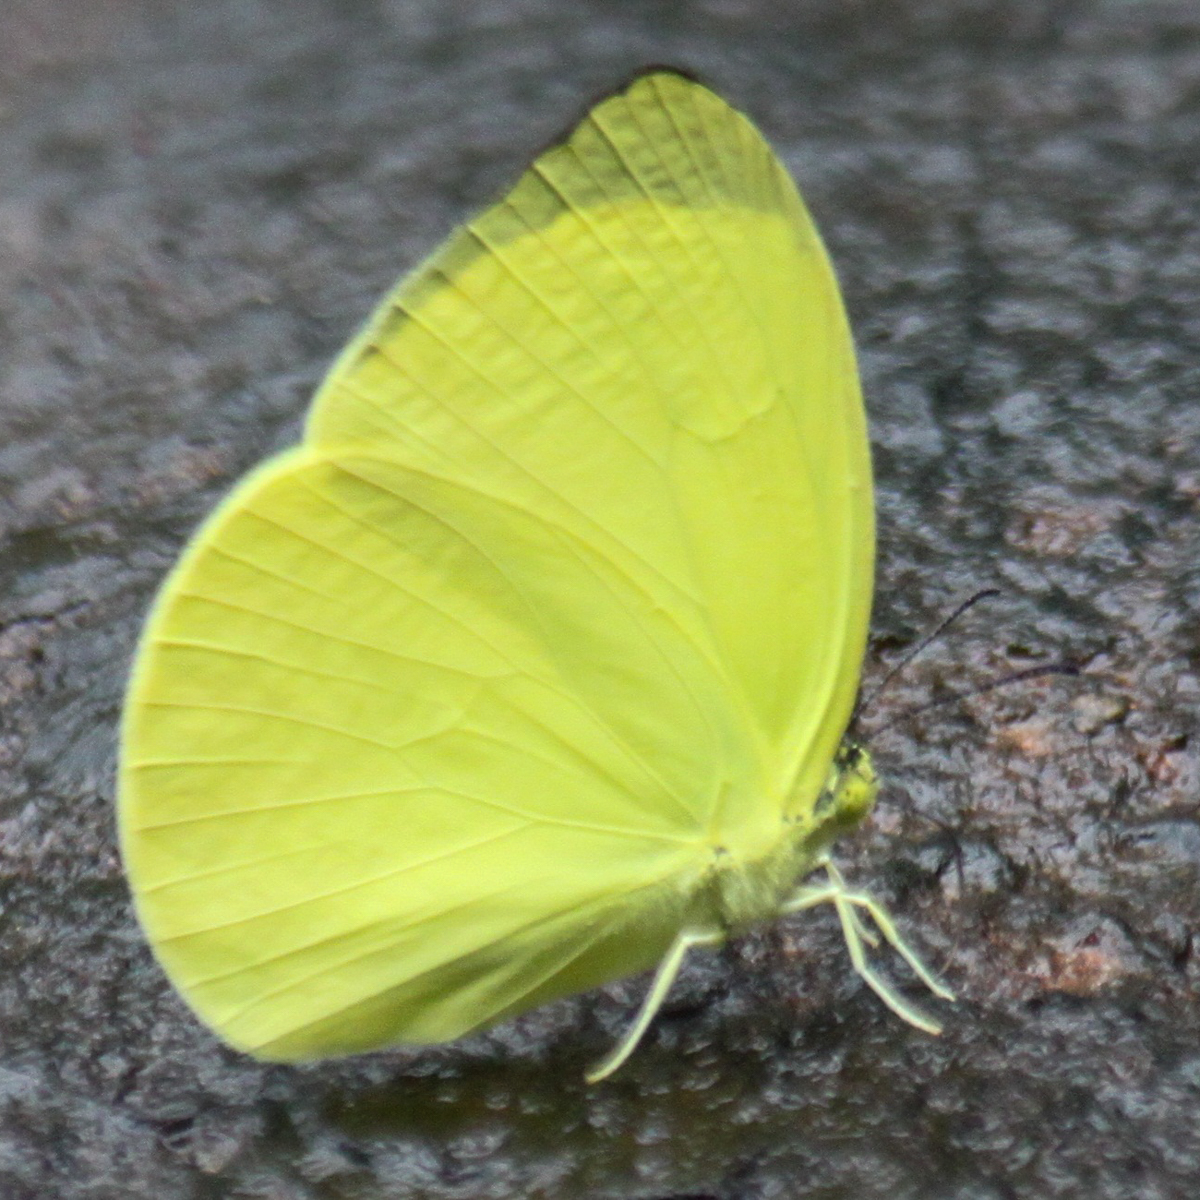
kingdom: Animalia
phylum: Arthropoda
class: Insecta
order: Lepidoptera
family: Pieridae
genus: Gandaca
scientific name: Gandaca harina
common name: Tree yellow
